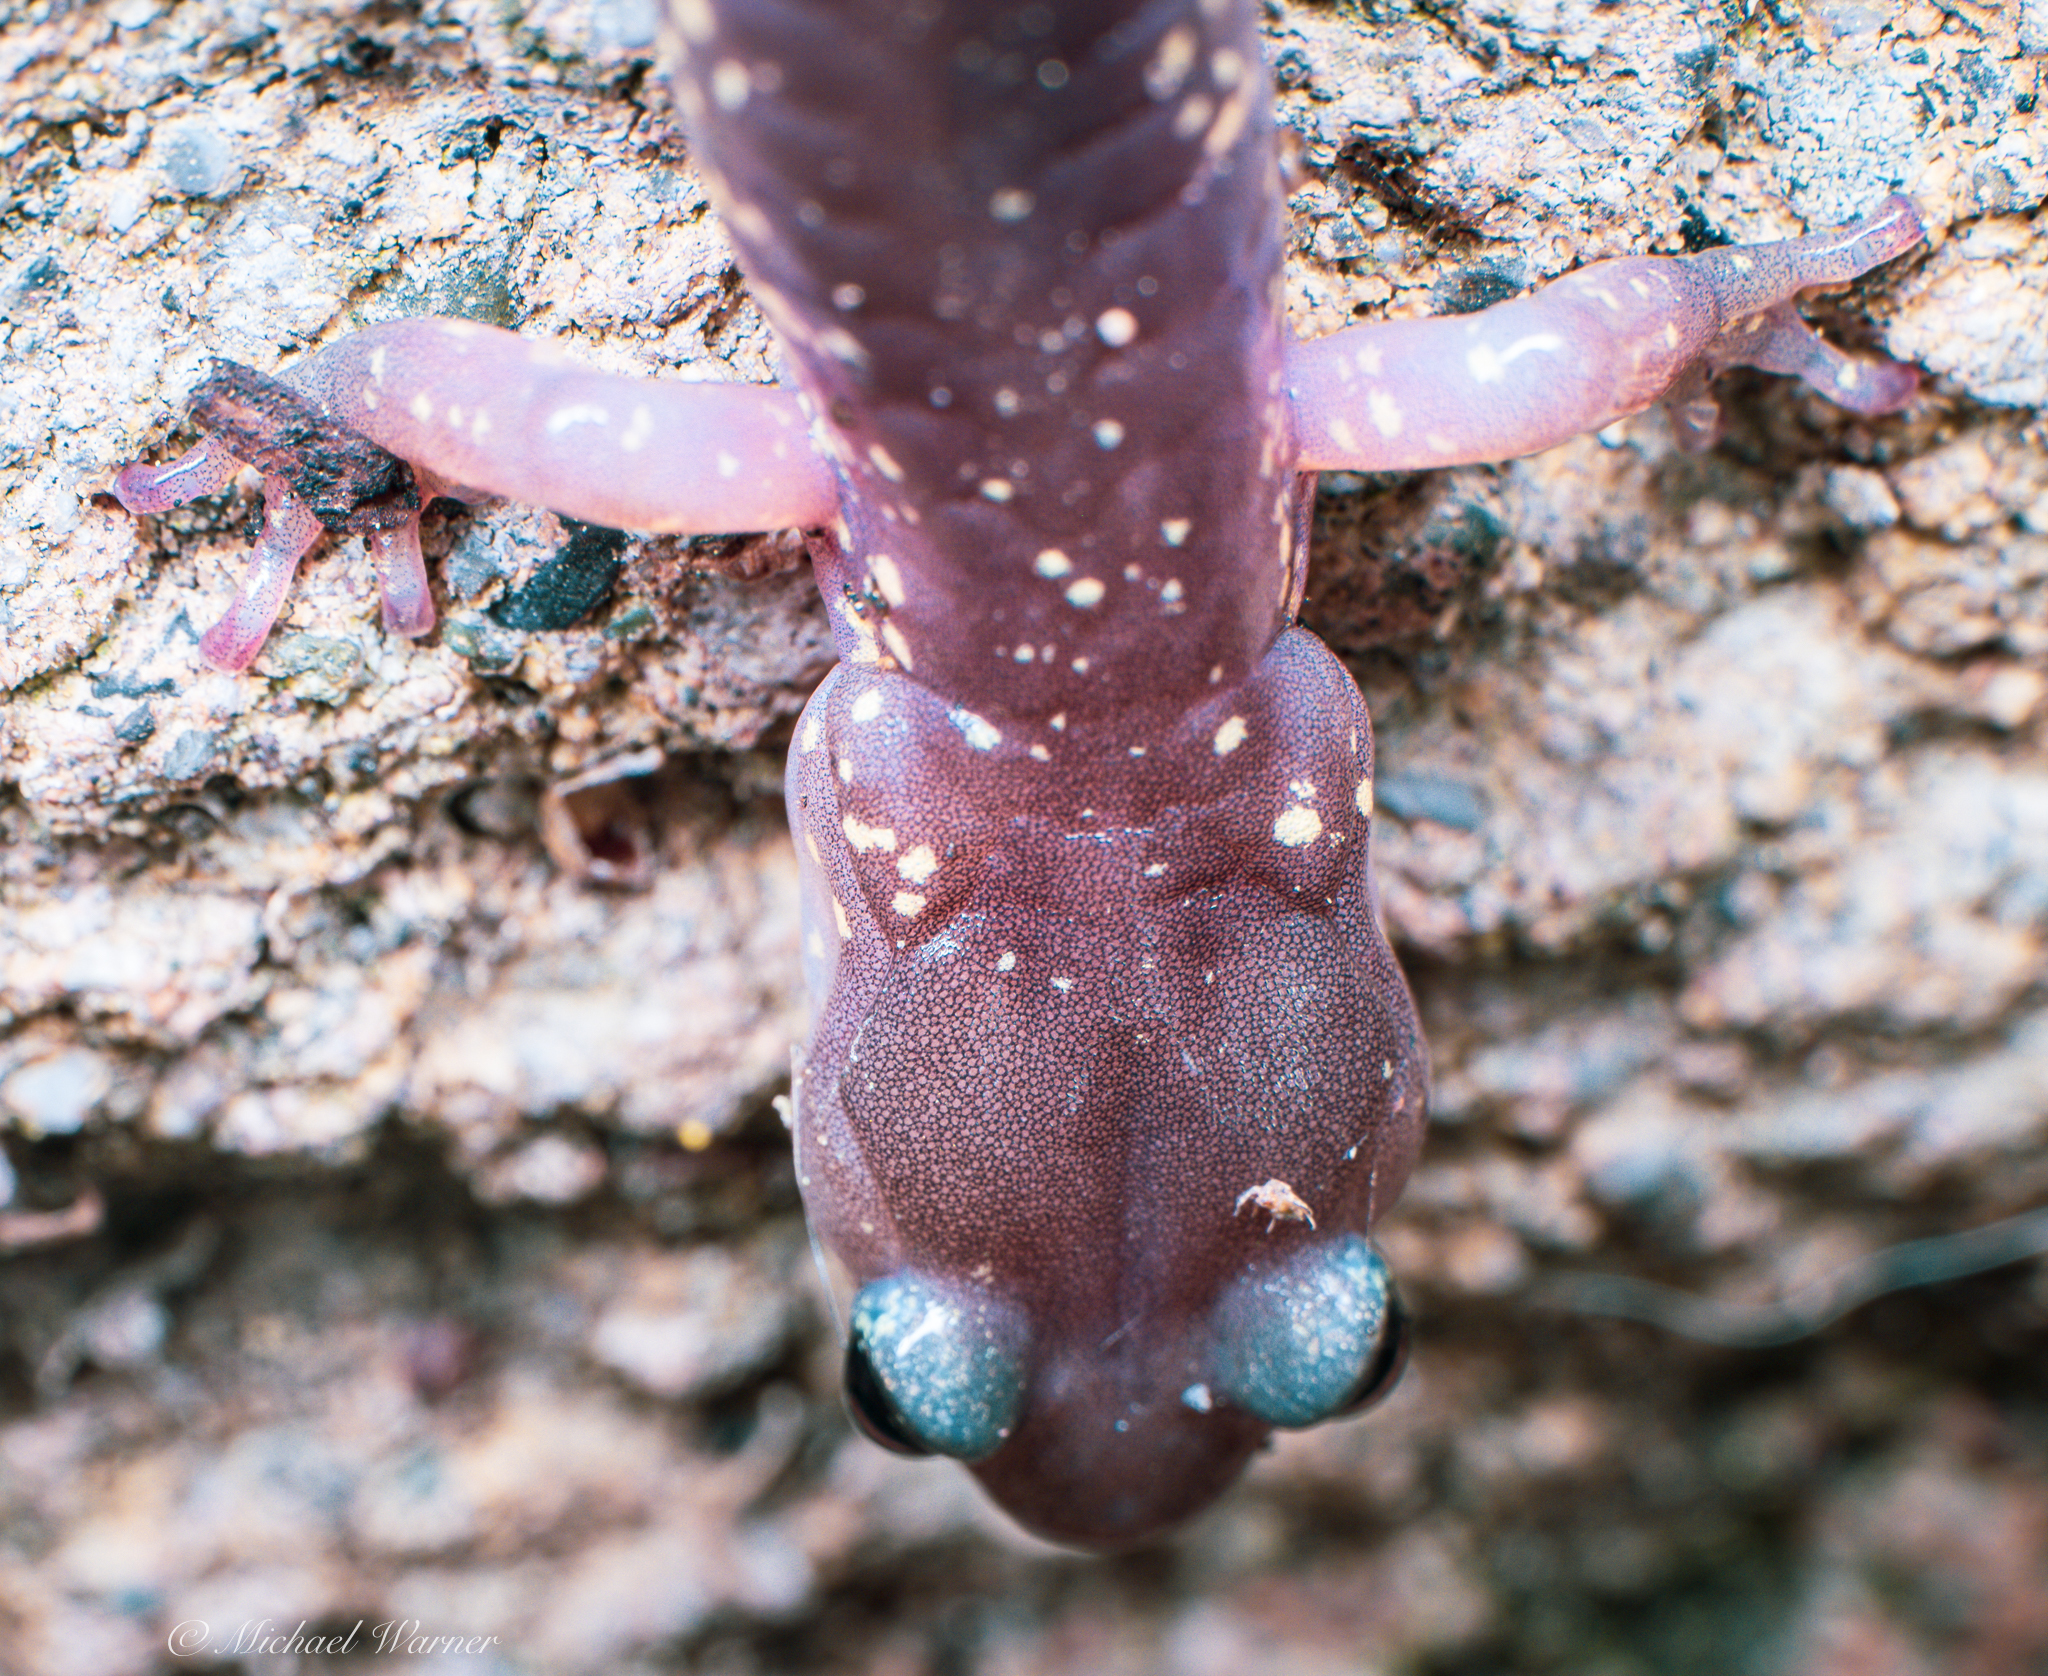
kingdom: Animalia
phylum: Chordata
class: Amphibia
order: Caudata
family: Plethodontidae
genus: Aneides
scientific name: Aneides lugubris
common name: Arboreal salamander
